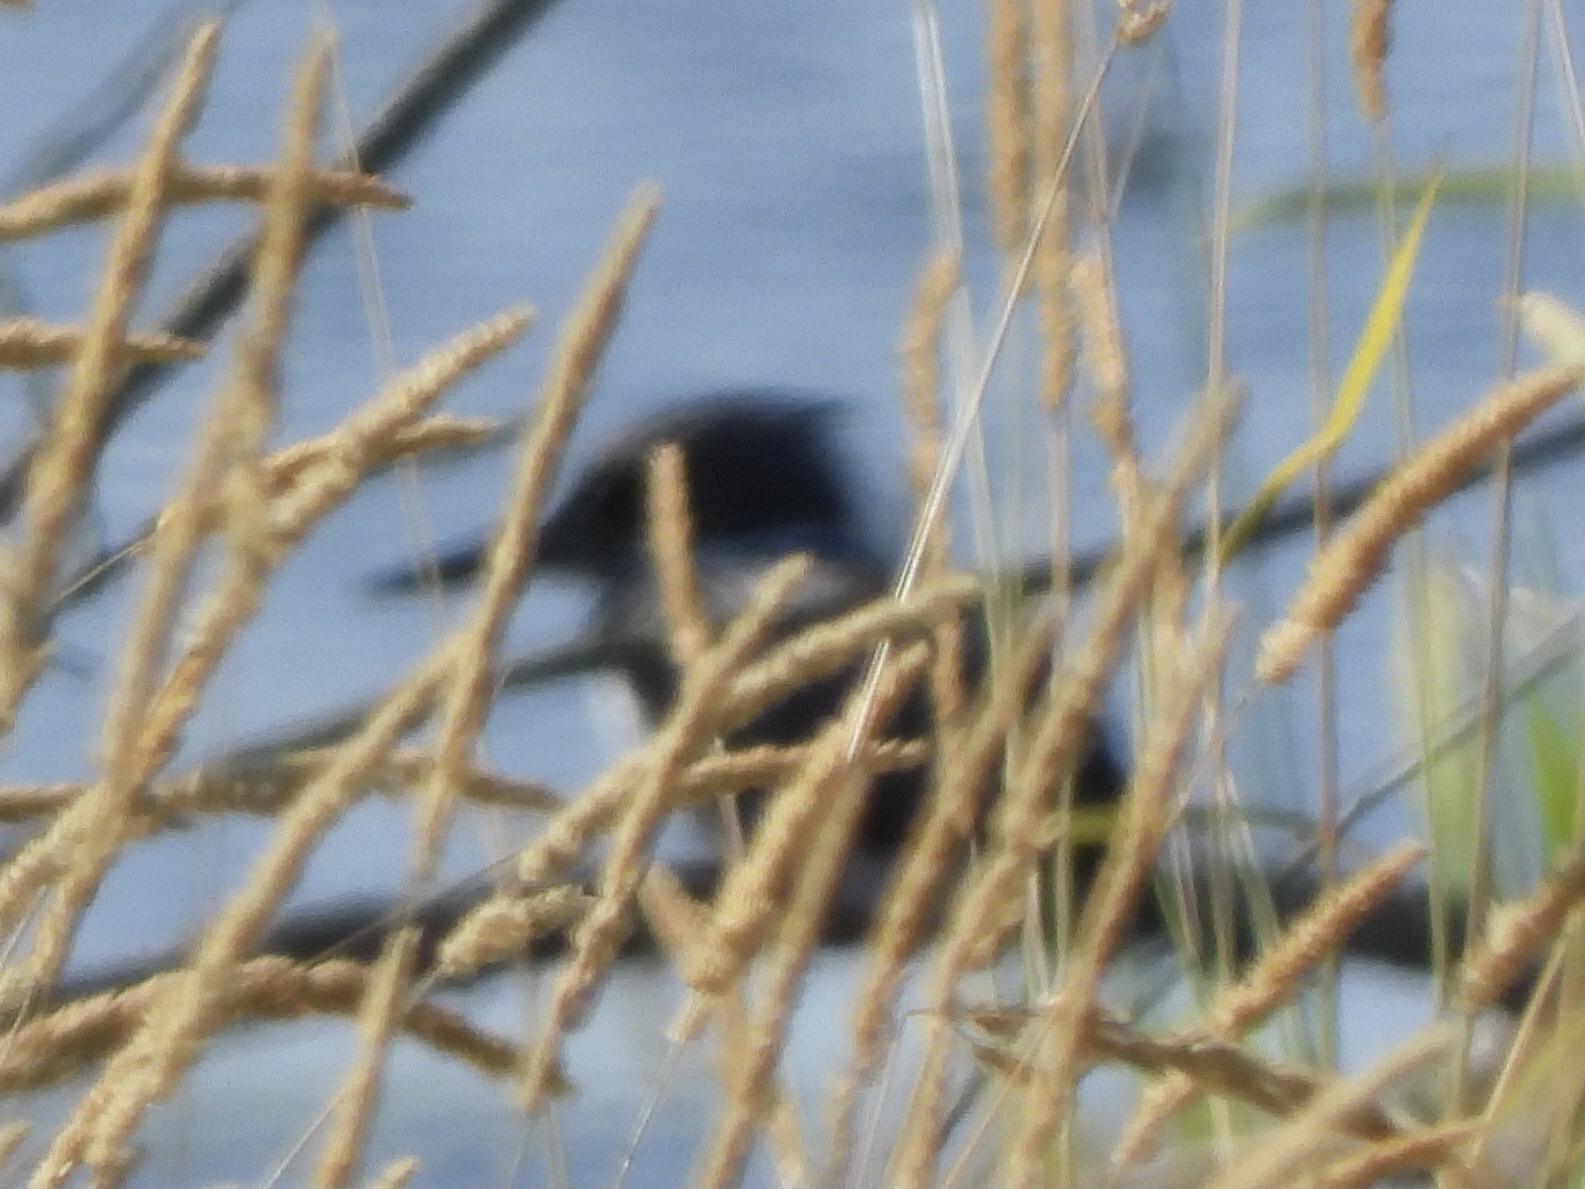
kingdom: Animalia
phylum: Chordata
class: Aves
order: Coraciiformes
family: Alcedinidae
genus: Megaceryle
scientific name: Megaceryle alcyon
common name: Belted kingfisher
